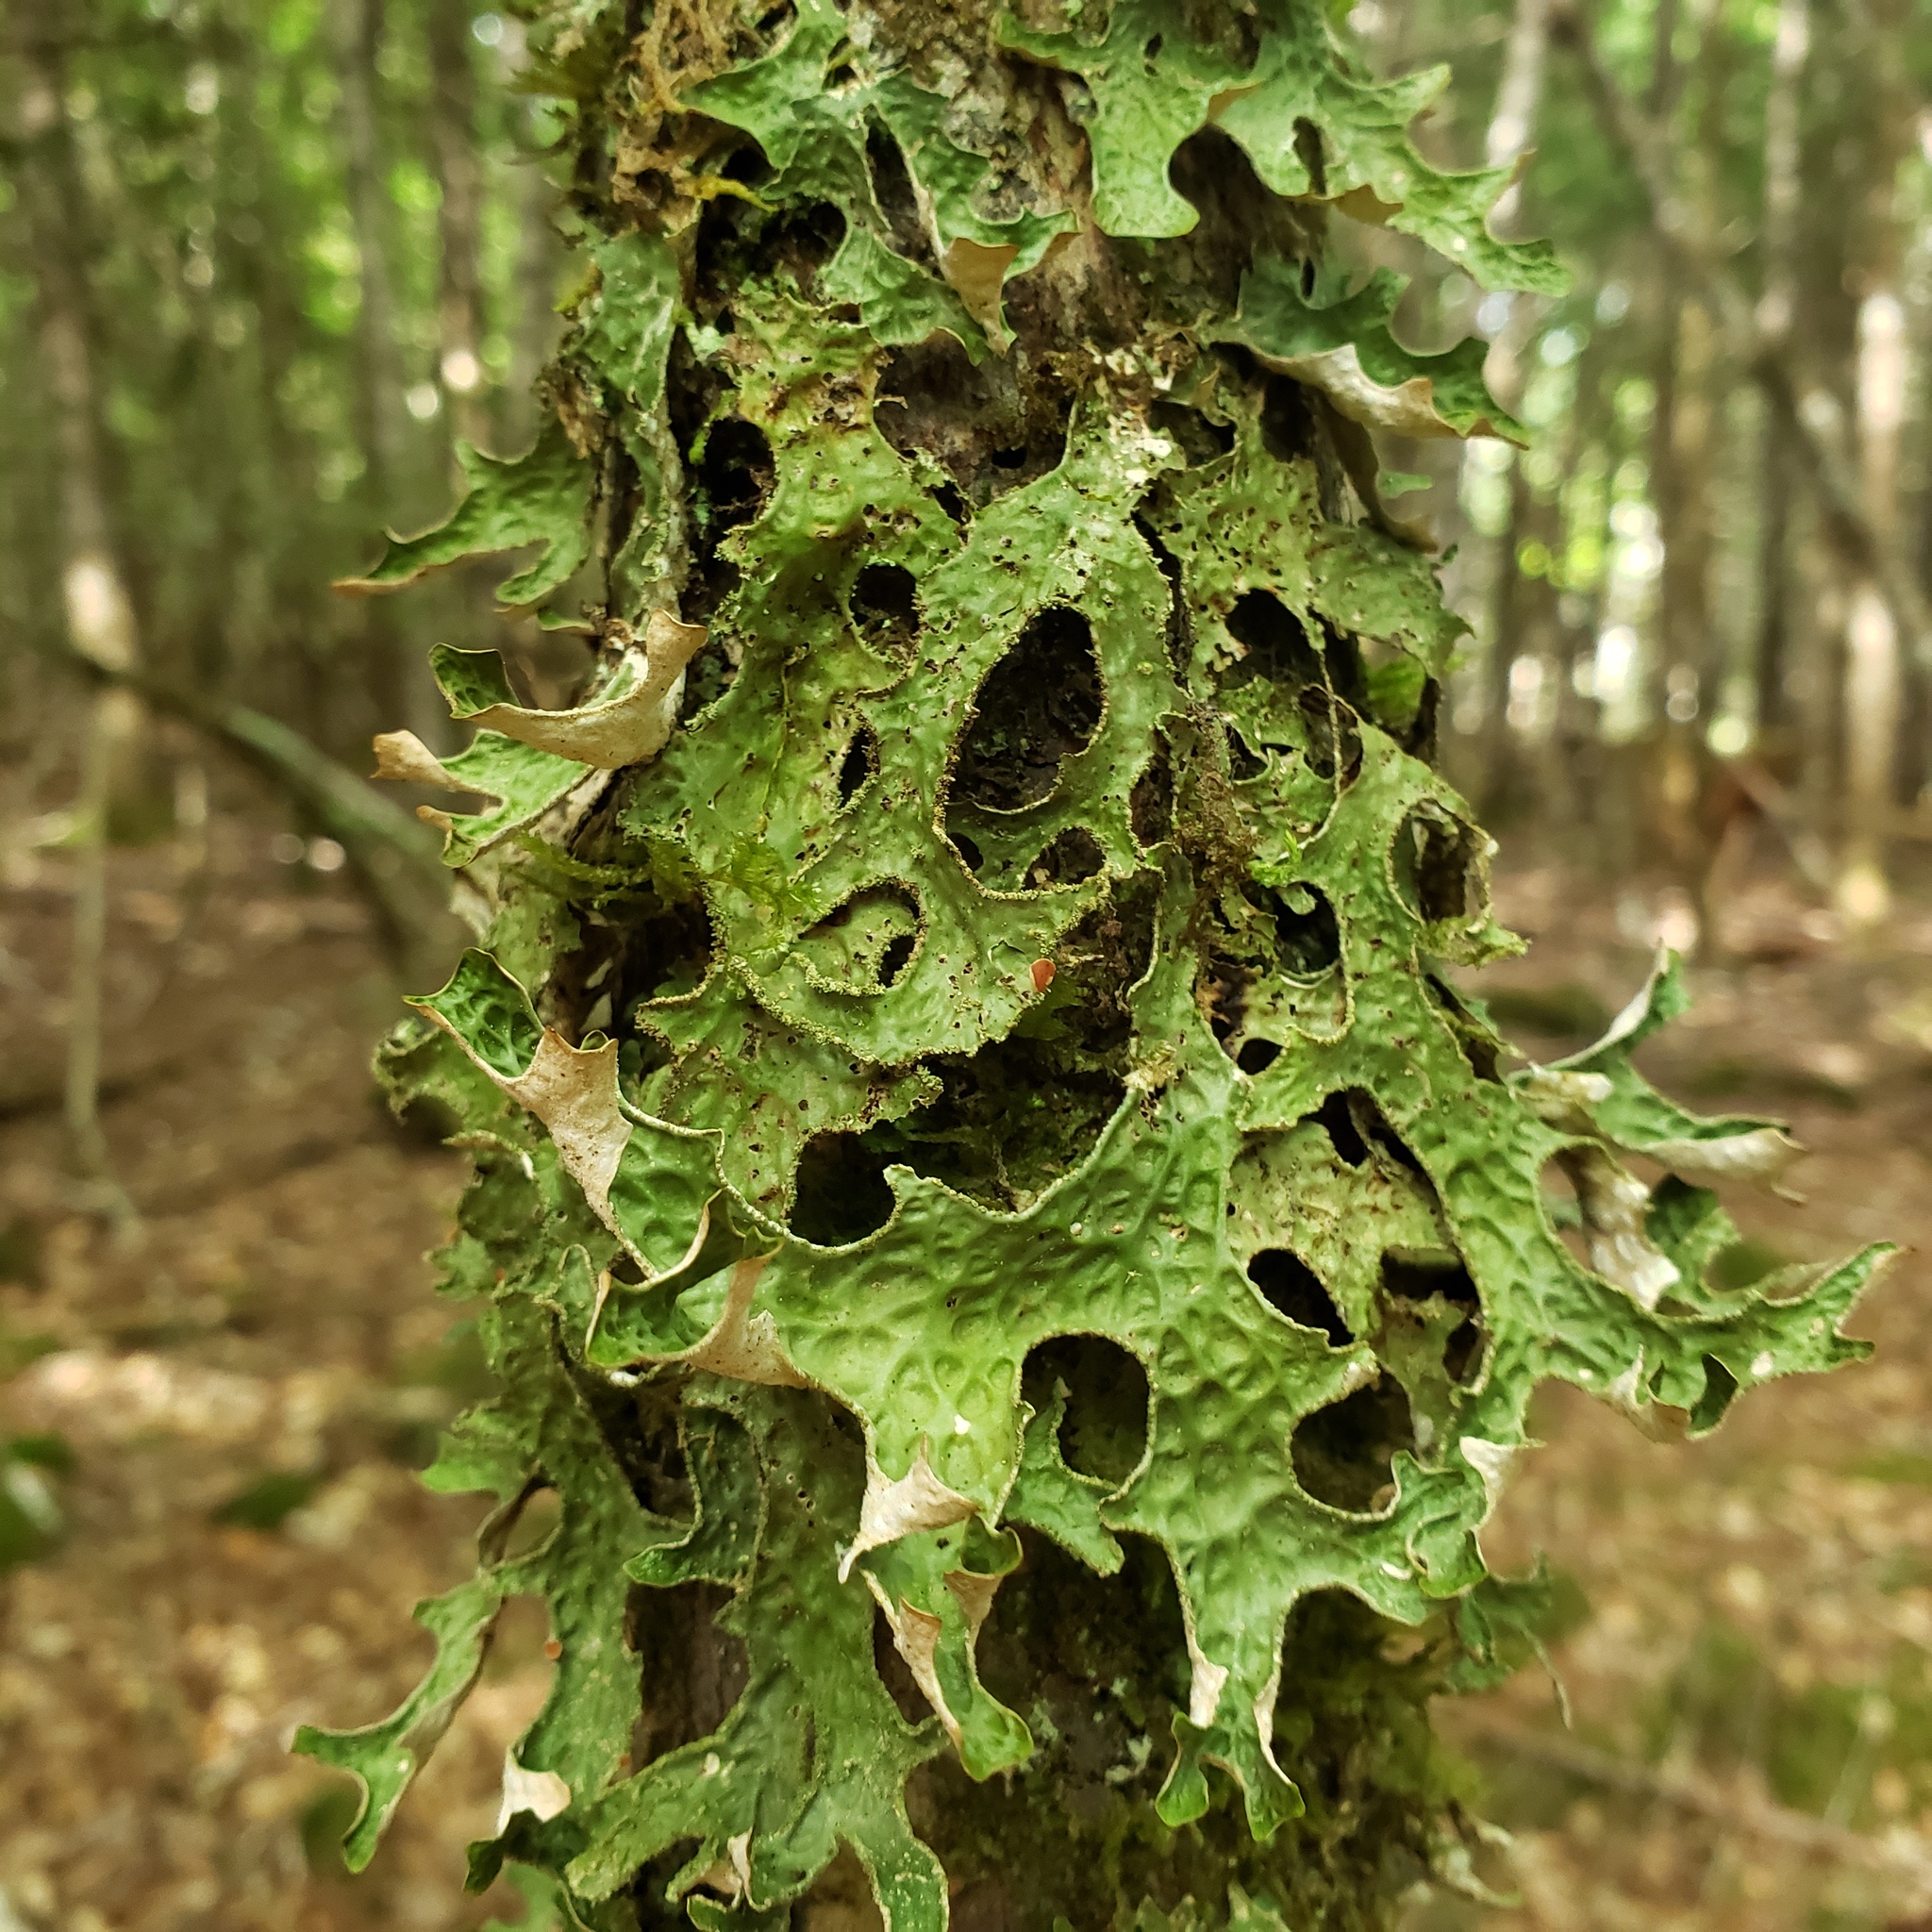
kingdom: Fungi
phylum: Ascomycota
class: Lecanoromycetes
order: Peltigerales
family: Lobariaceae
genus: Lobaria
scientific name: Lobaria pulmonaria
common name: Lungwort
